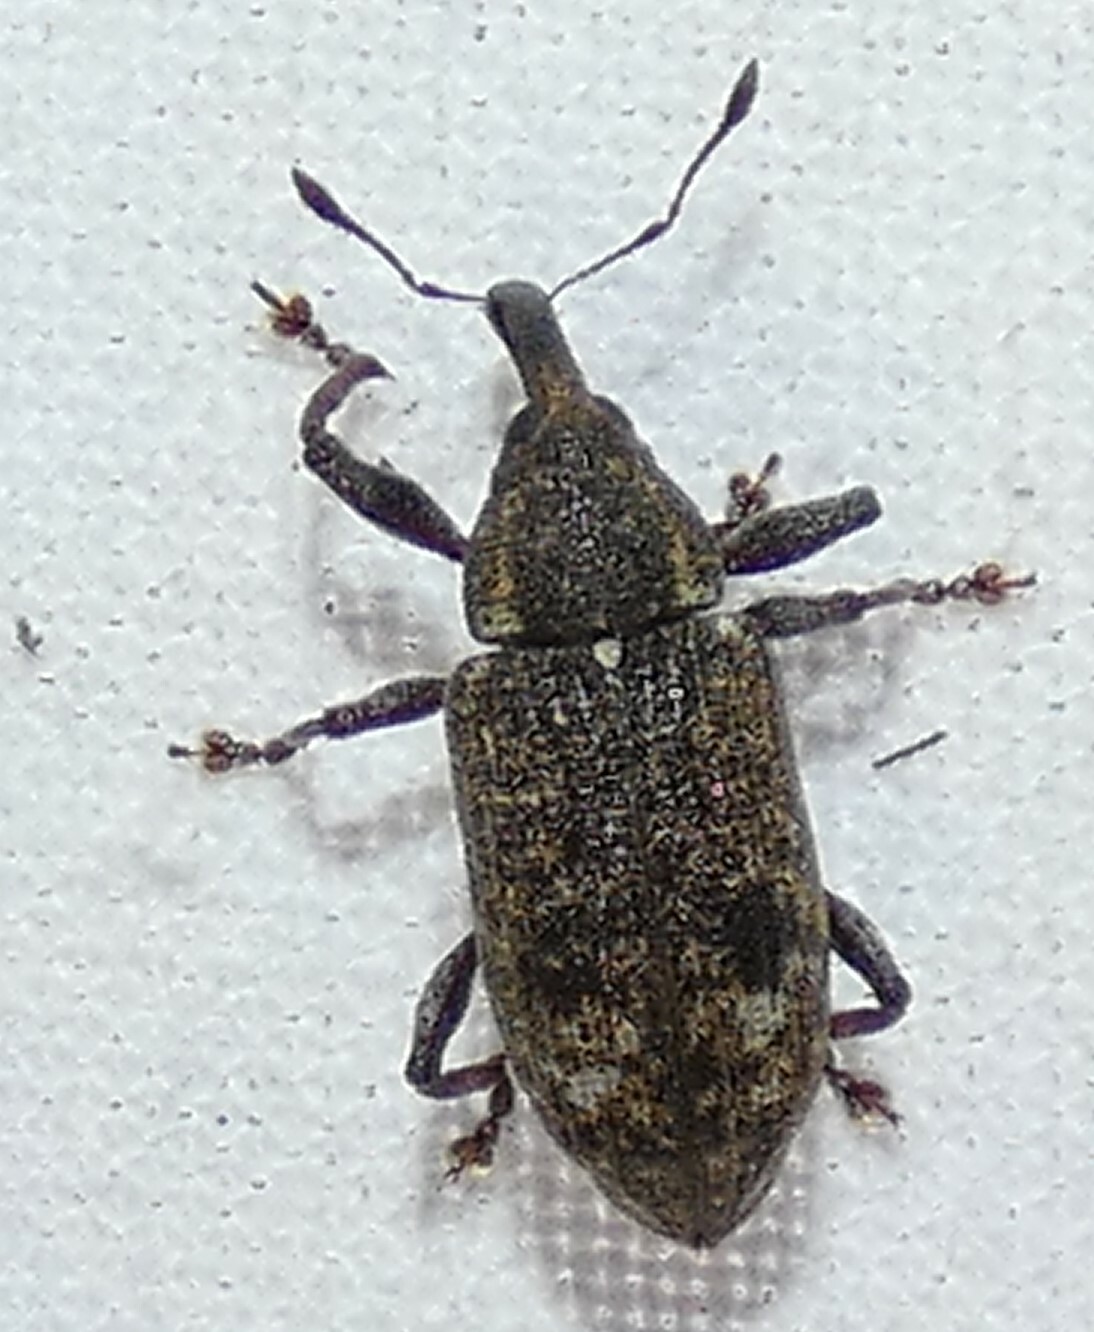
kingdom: Animalia
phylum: Arthropoda
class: Insecta
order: Coleoptera
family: Curculionidae
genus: Hilipinus
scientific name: Hilipinus nearcticus
